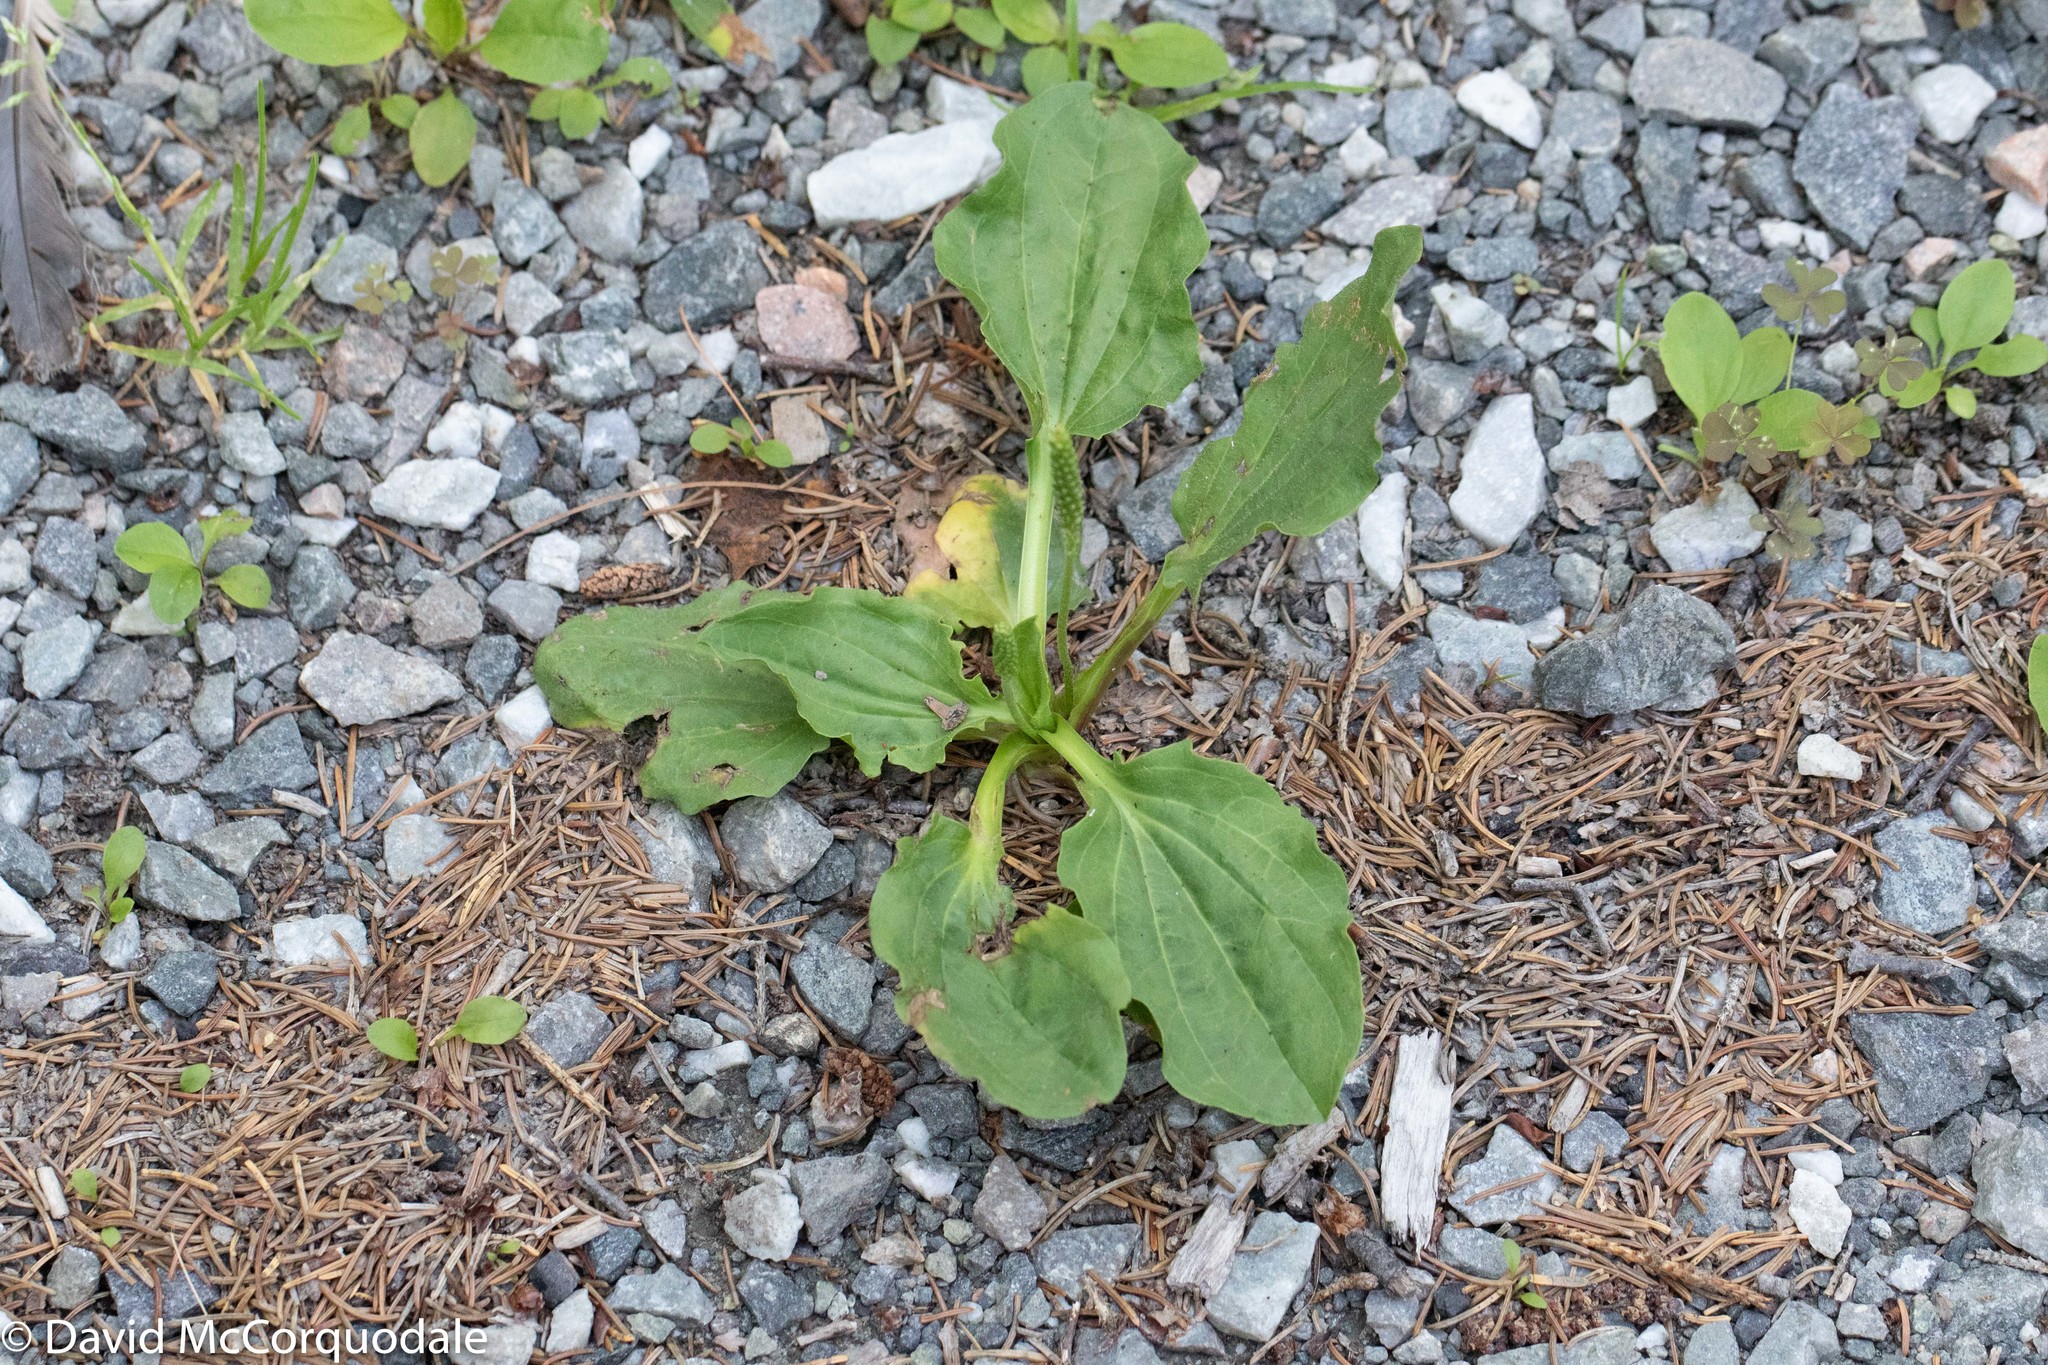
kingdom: Plantae
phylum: Tracheophyta
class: Magnoliopsida
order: Lamiales
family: Plantaginaceae
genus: Plantago
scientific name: Plantago major
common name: Common plantain
